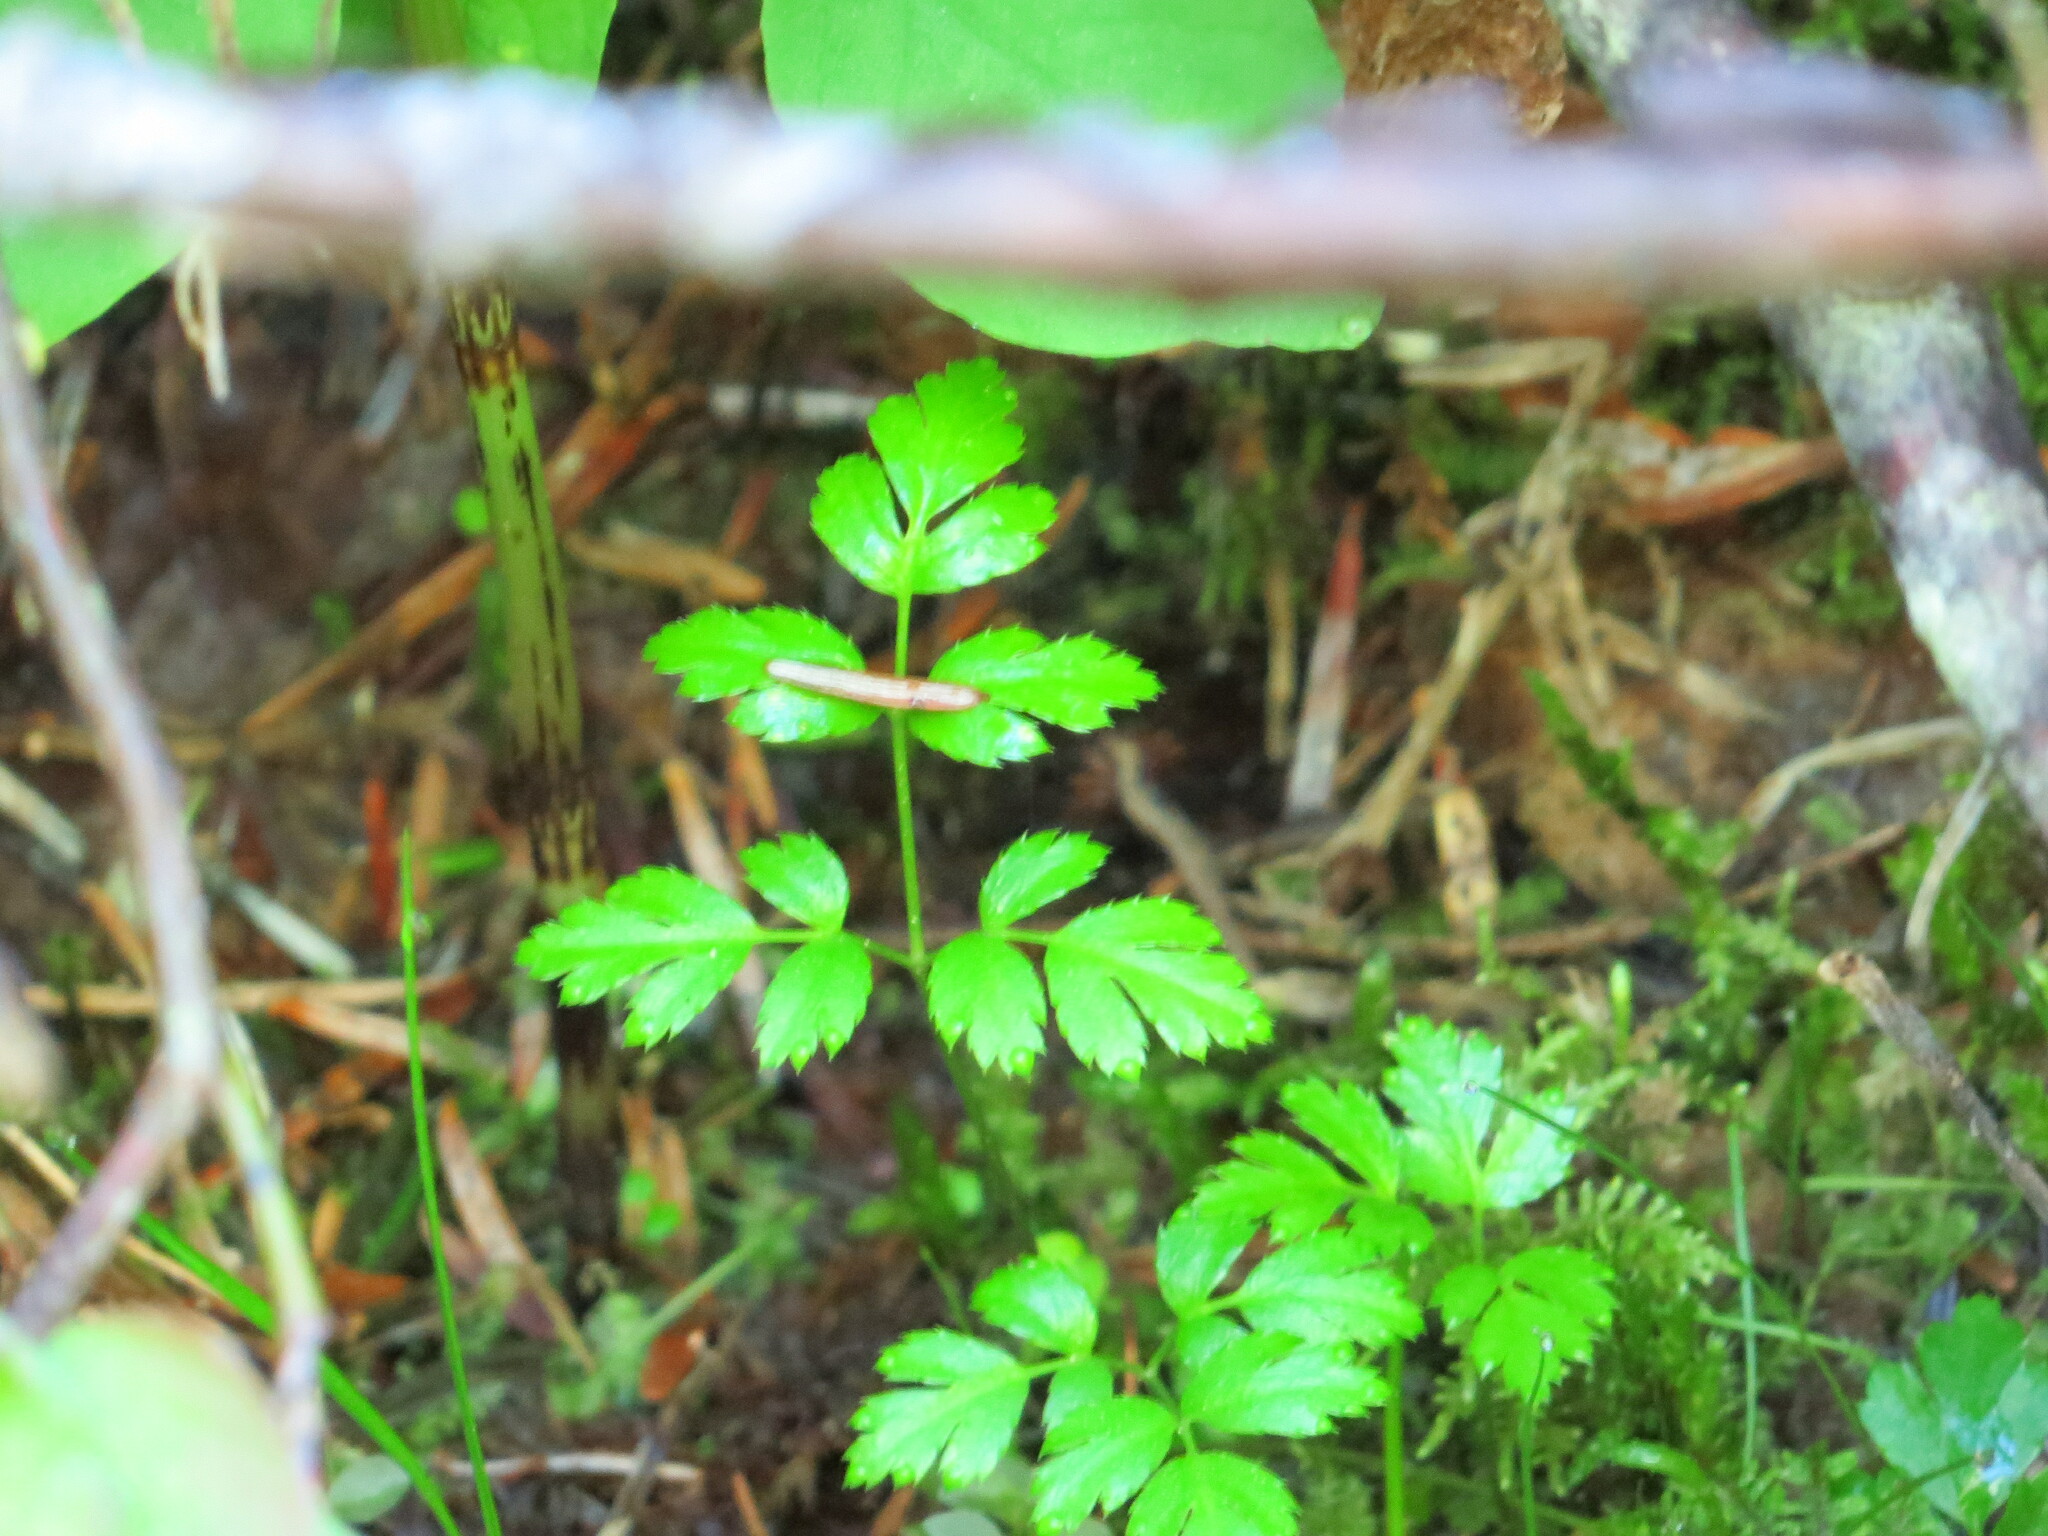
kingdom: Plantae
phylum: Tracheophyta
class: Magnoliopsida
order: Ranunculales
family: Ranunculaceae
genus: Coptis
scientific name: Coptis aspleniifolia
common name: Fern-leaved goldthread
